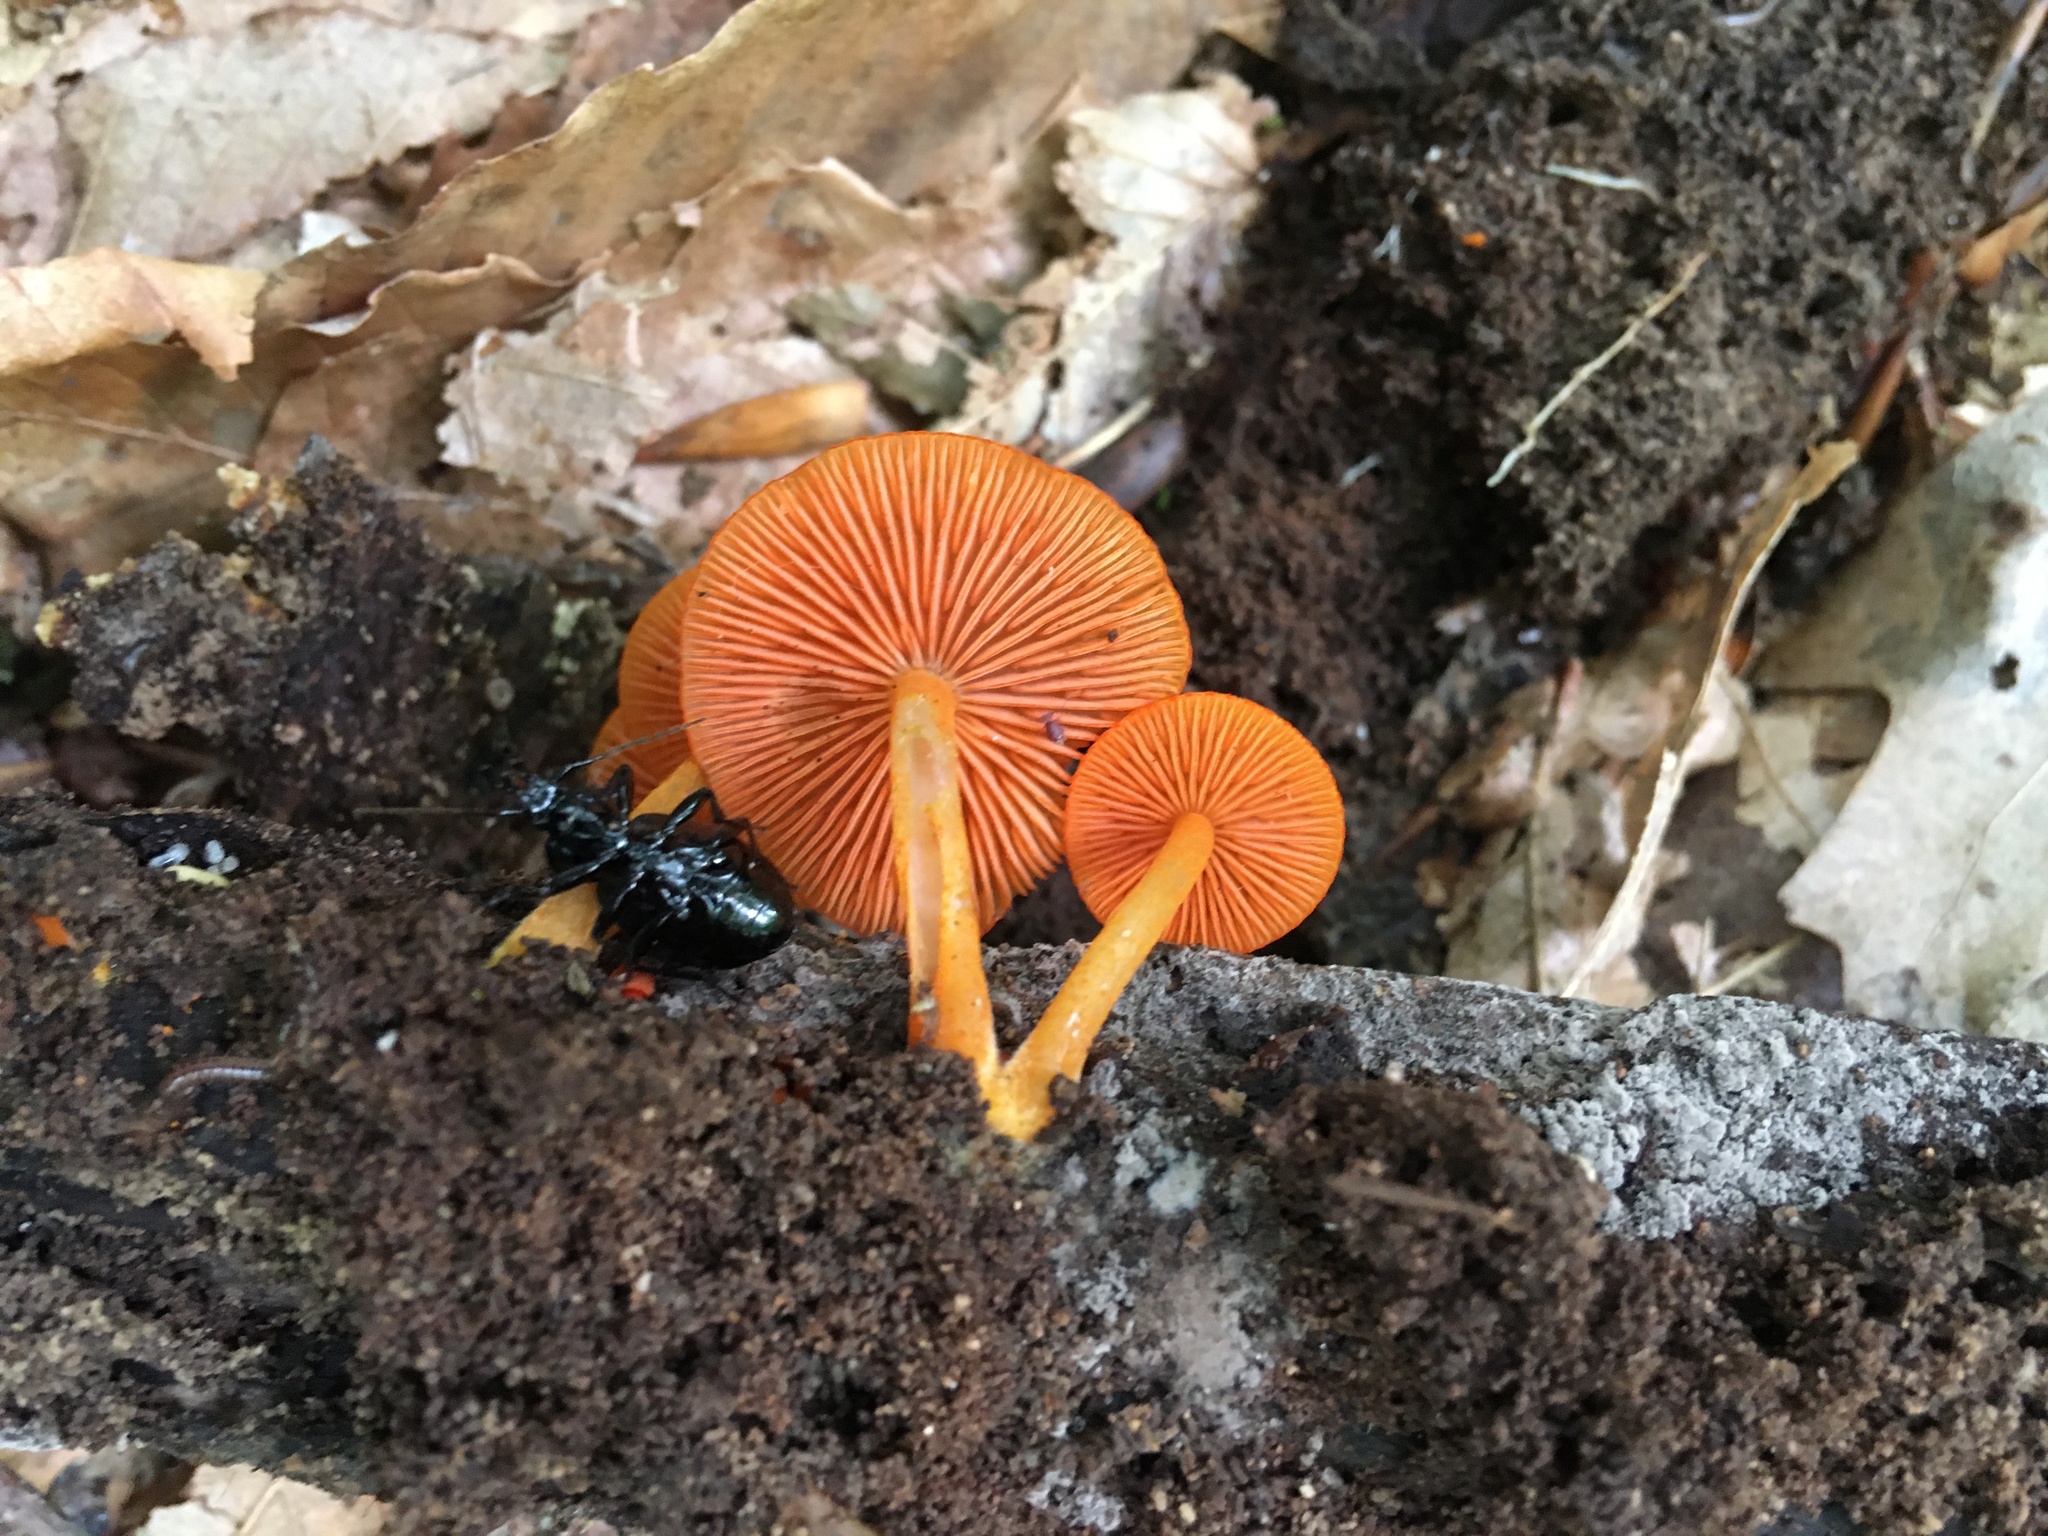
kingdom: Fungi
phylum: Basidiomycota
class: Agaricomycetes
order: Agaricales
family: Mycenaceae
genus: Mycena
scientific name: Mycena leaiana
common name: Orange mycena
